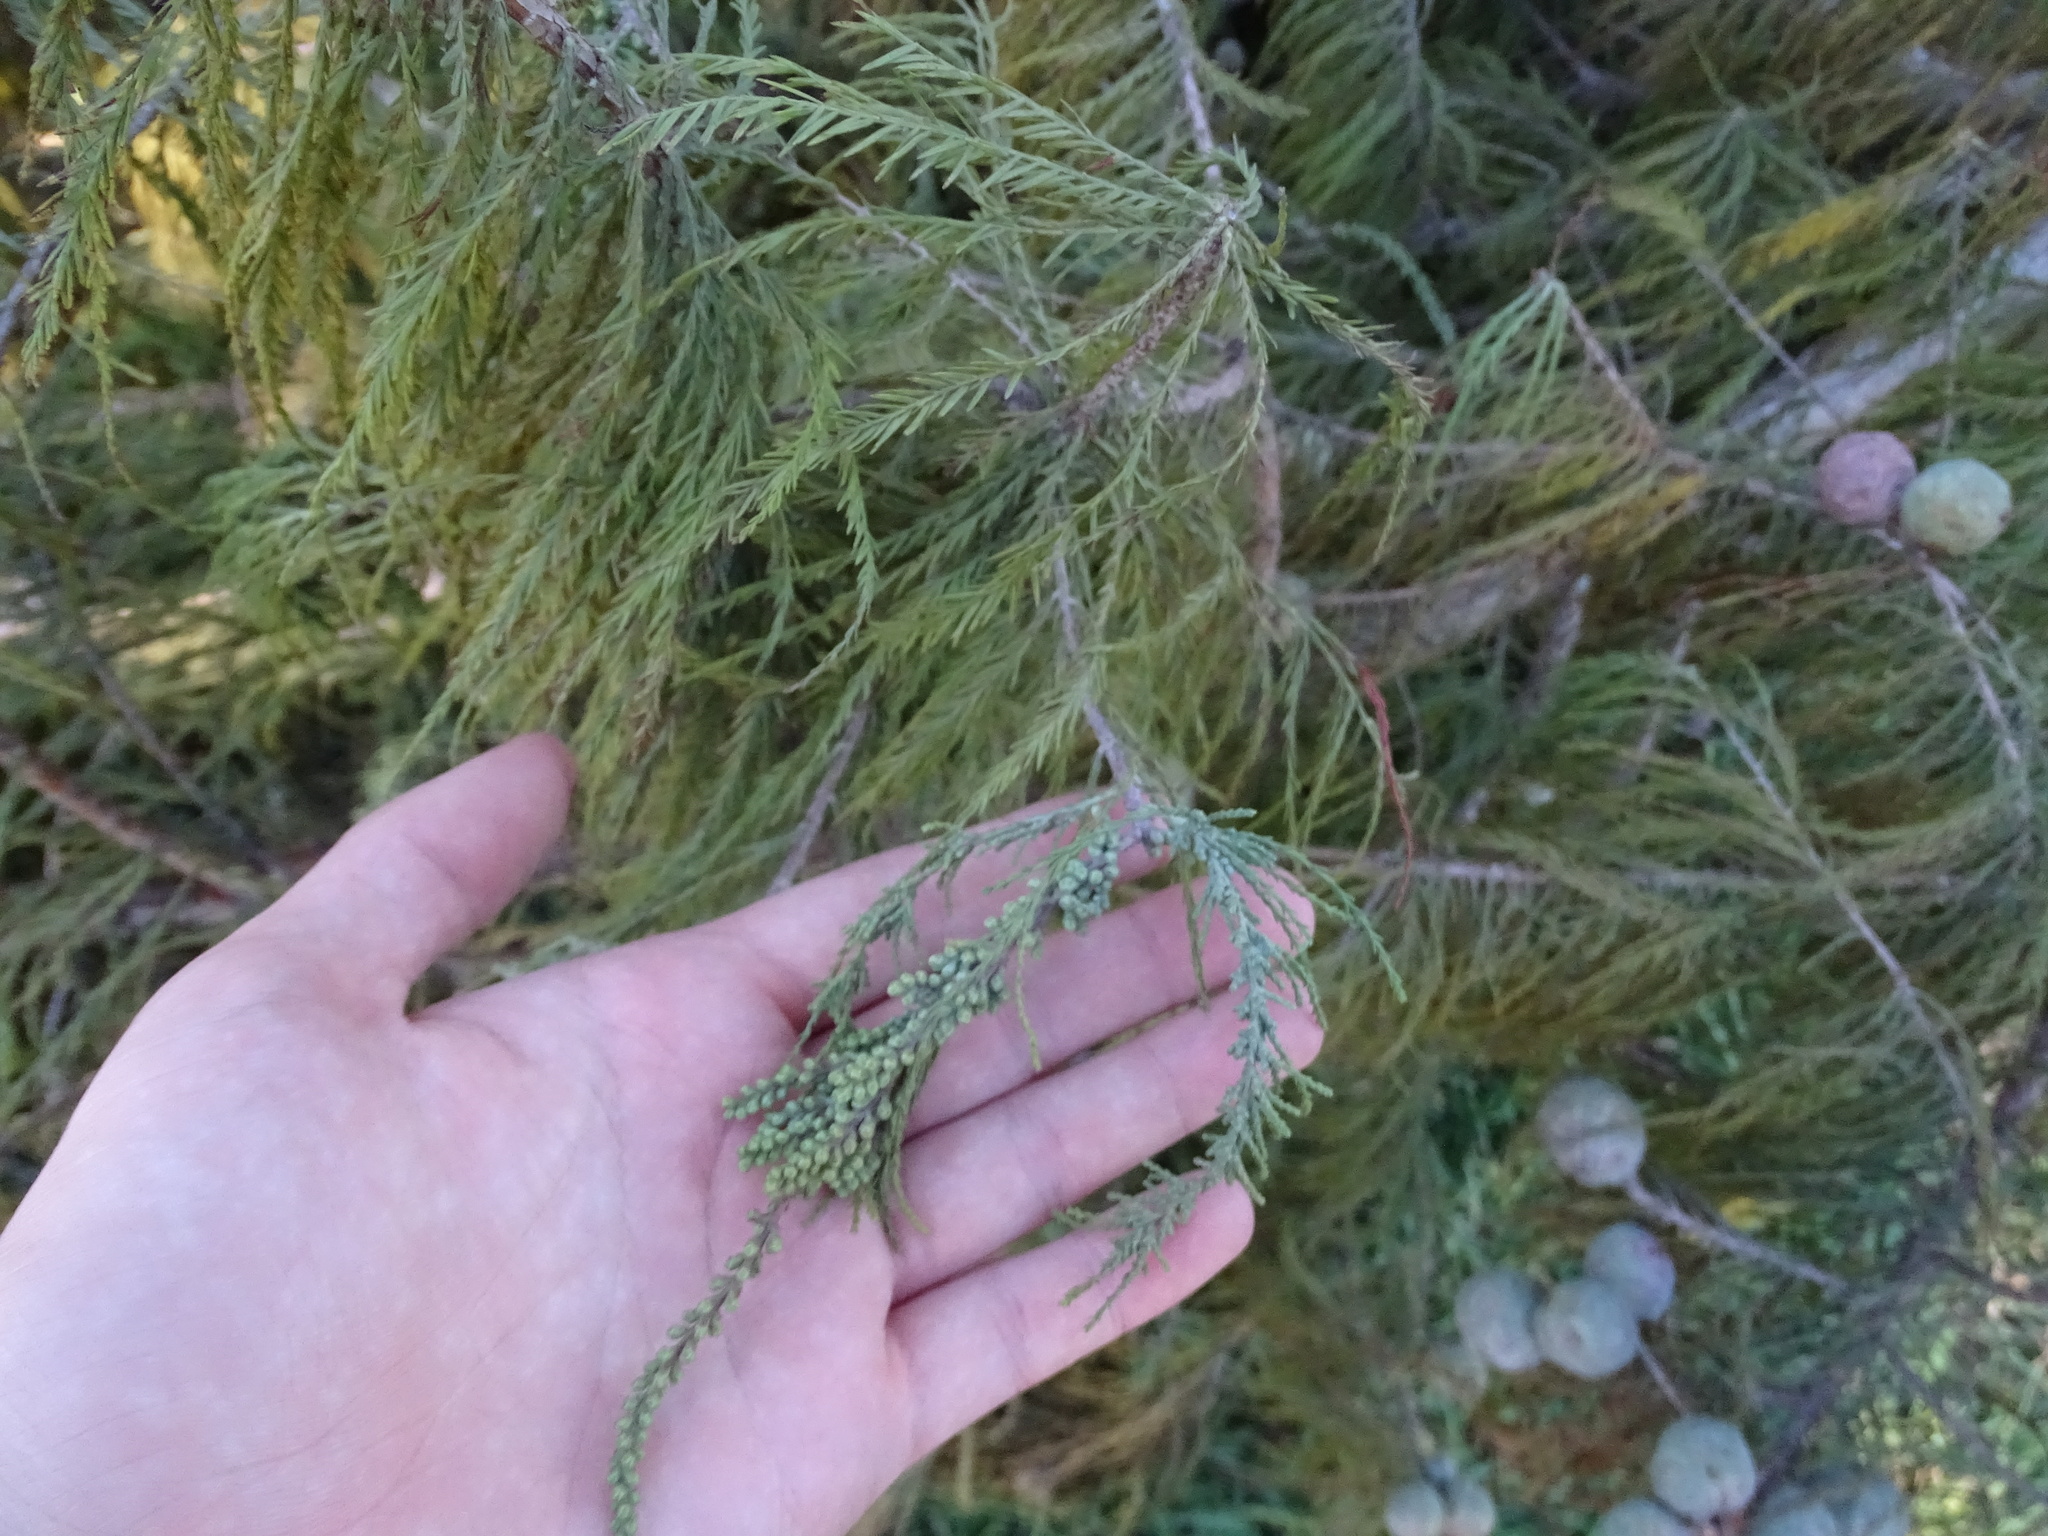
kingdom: Plantae
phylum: Tracheophyta
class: Pinopsida
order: Pinales
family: Cupressaceae
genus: Taxodium
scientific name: Taxodium distichum
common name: Bald cypress
